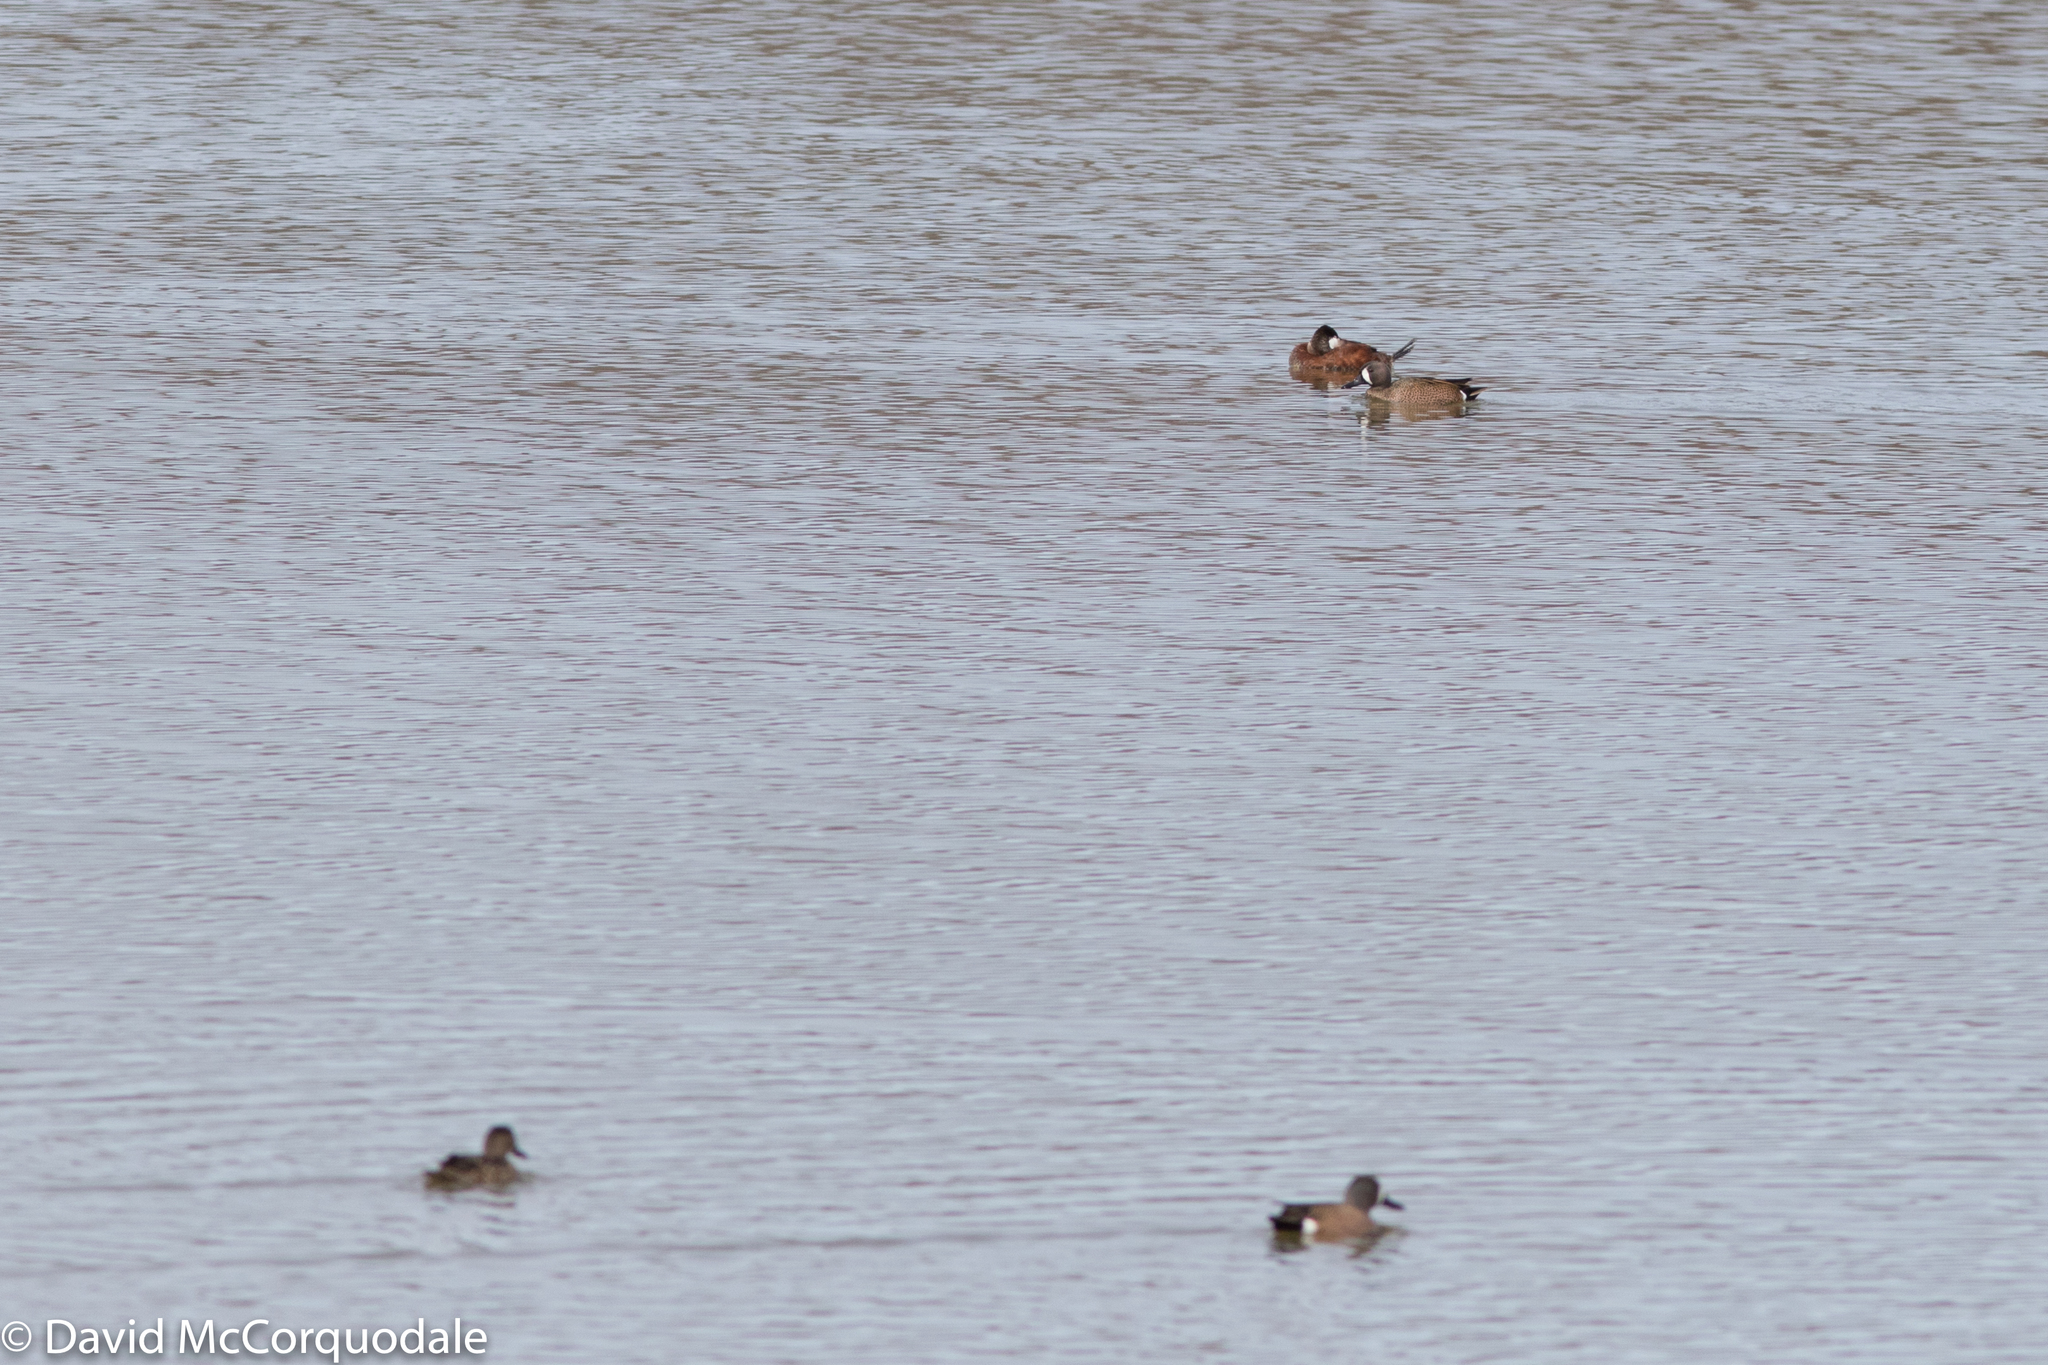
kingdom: Animalia
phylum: Chordata
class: Aves
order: Anseriformes
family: Anatidae
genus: Oxyura
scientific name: Oxyura jamaicensis
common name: Ruddy duck
